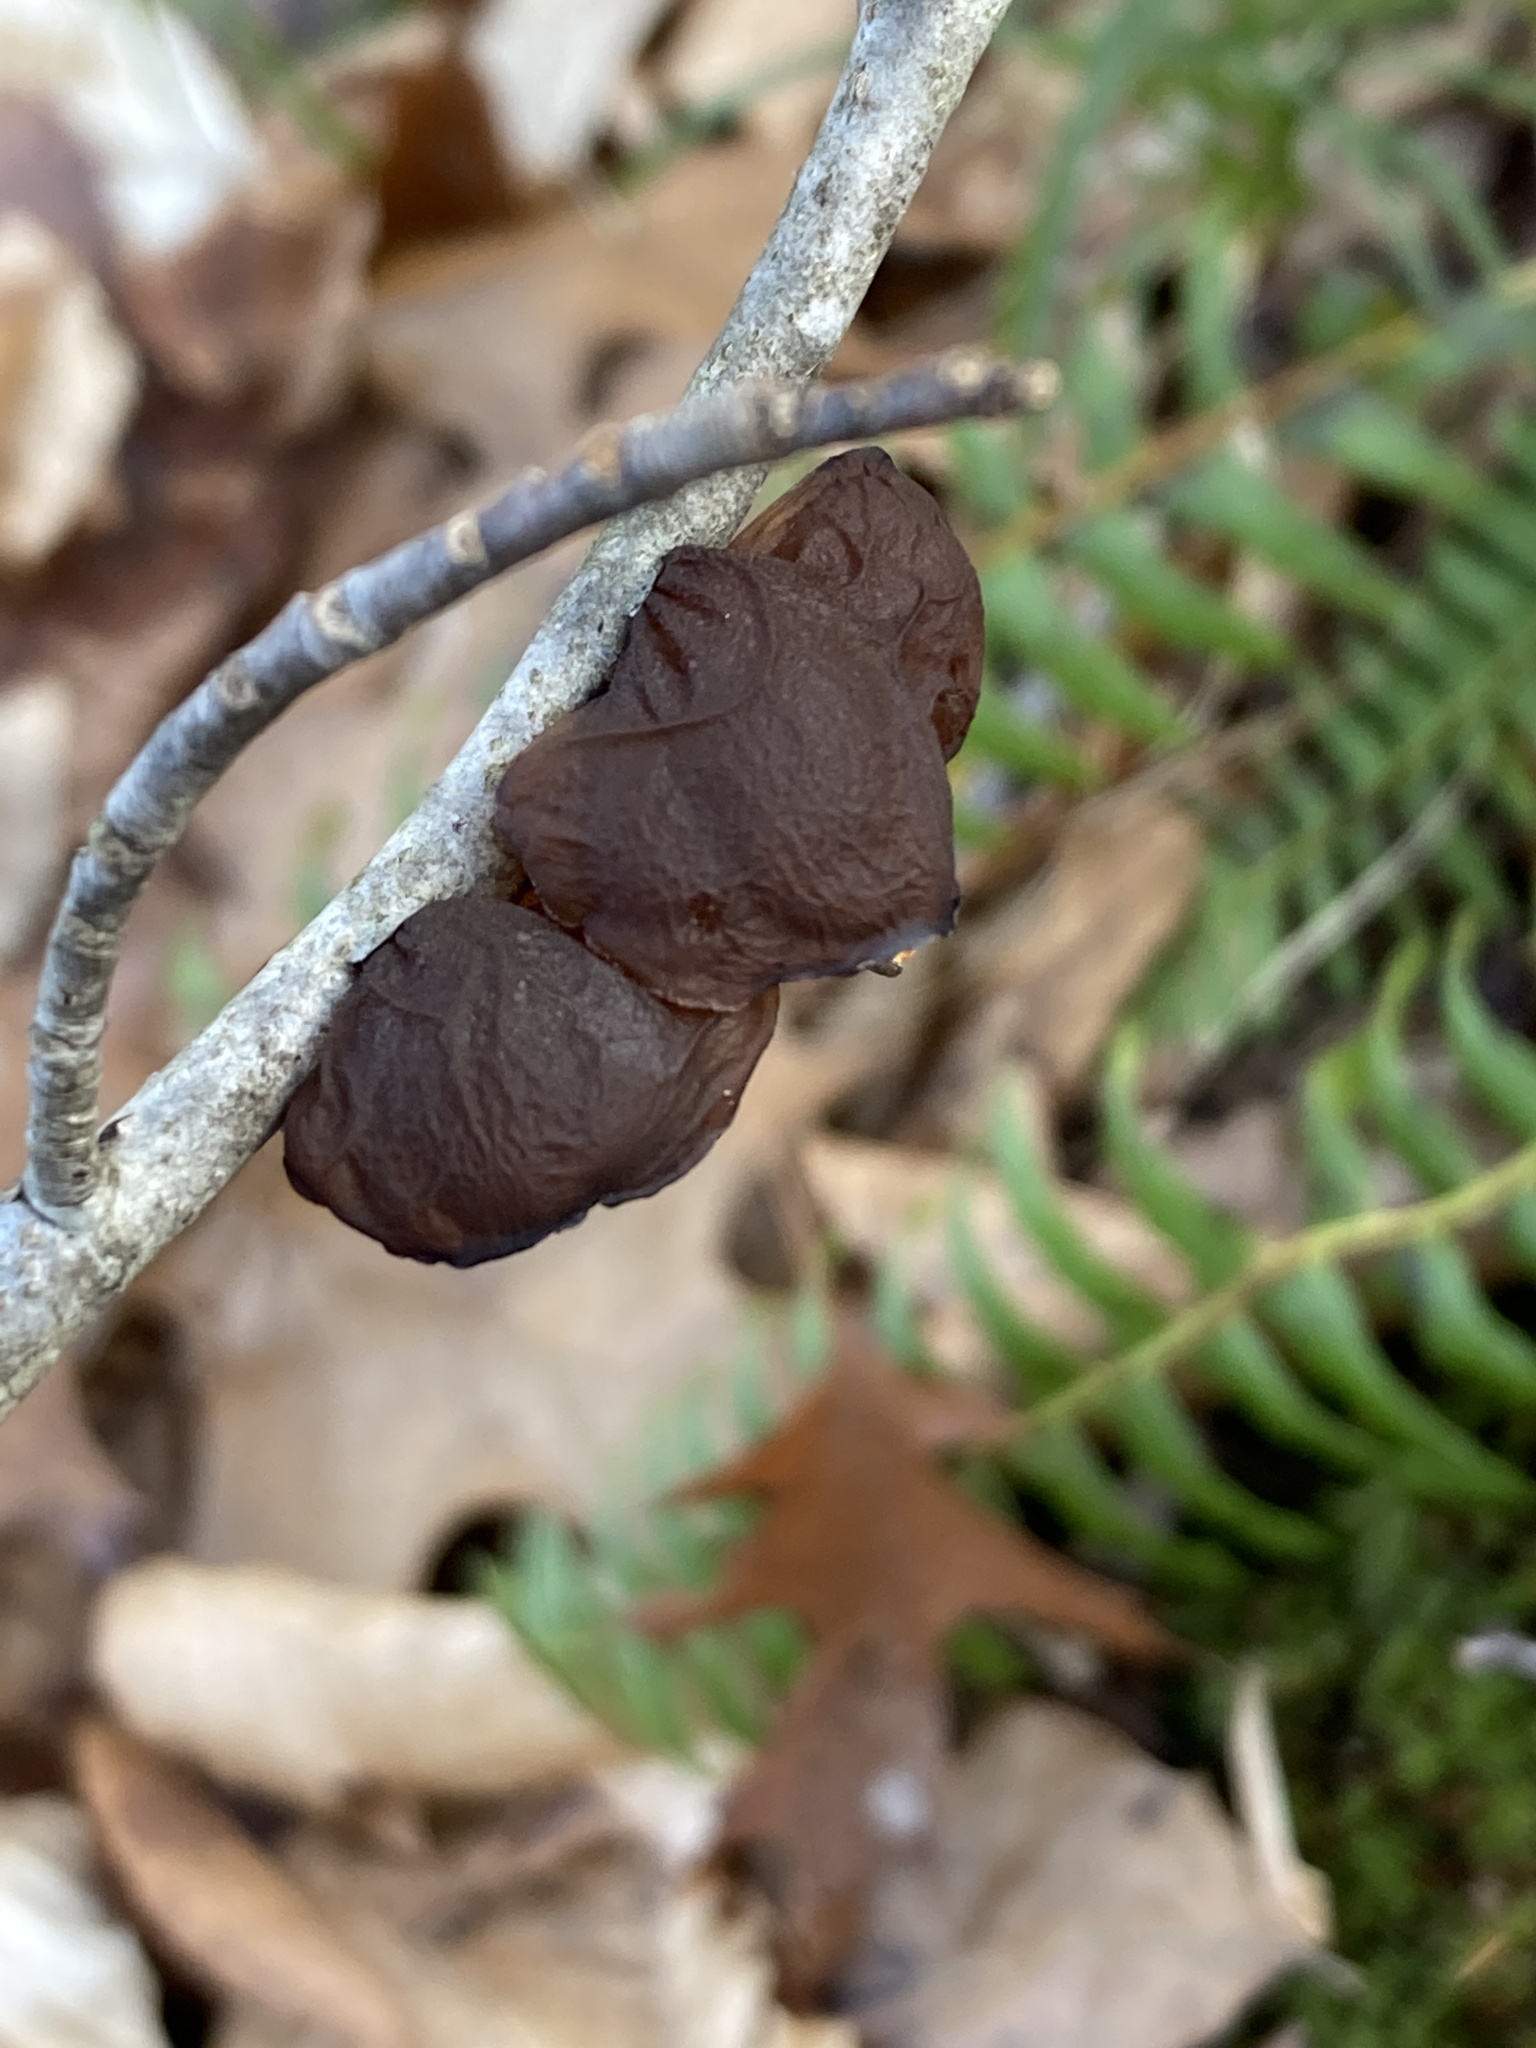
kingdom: Fungi
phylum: Basidiomycota
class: Agaricomycetes
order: Auriculariales
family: Auriculariaceae
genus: Exidia
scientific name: Exidia
